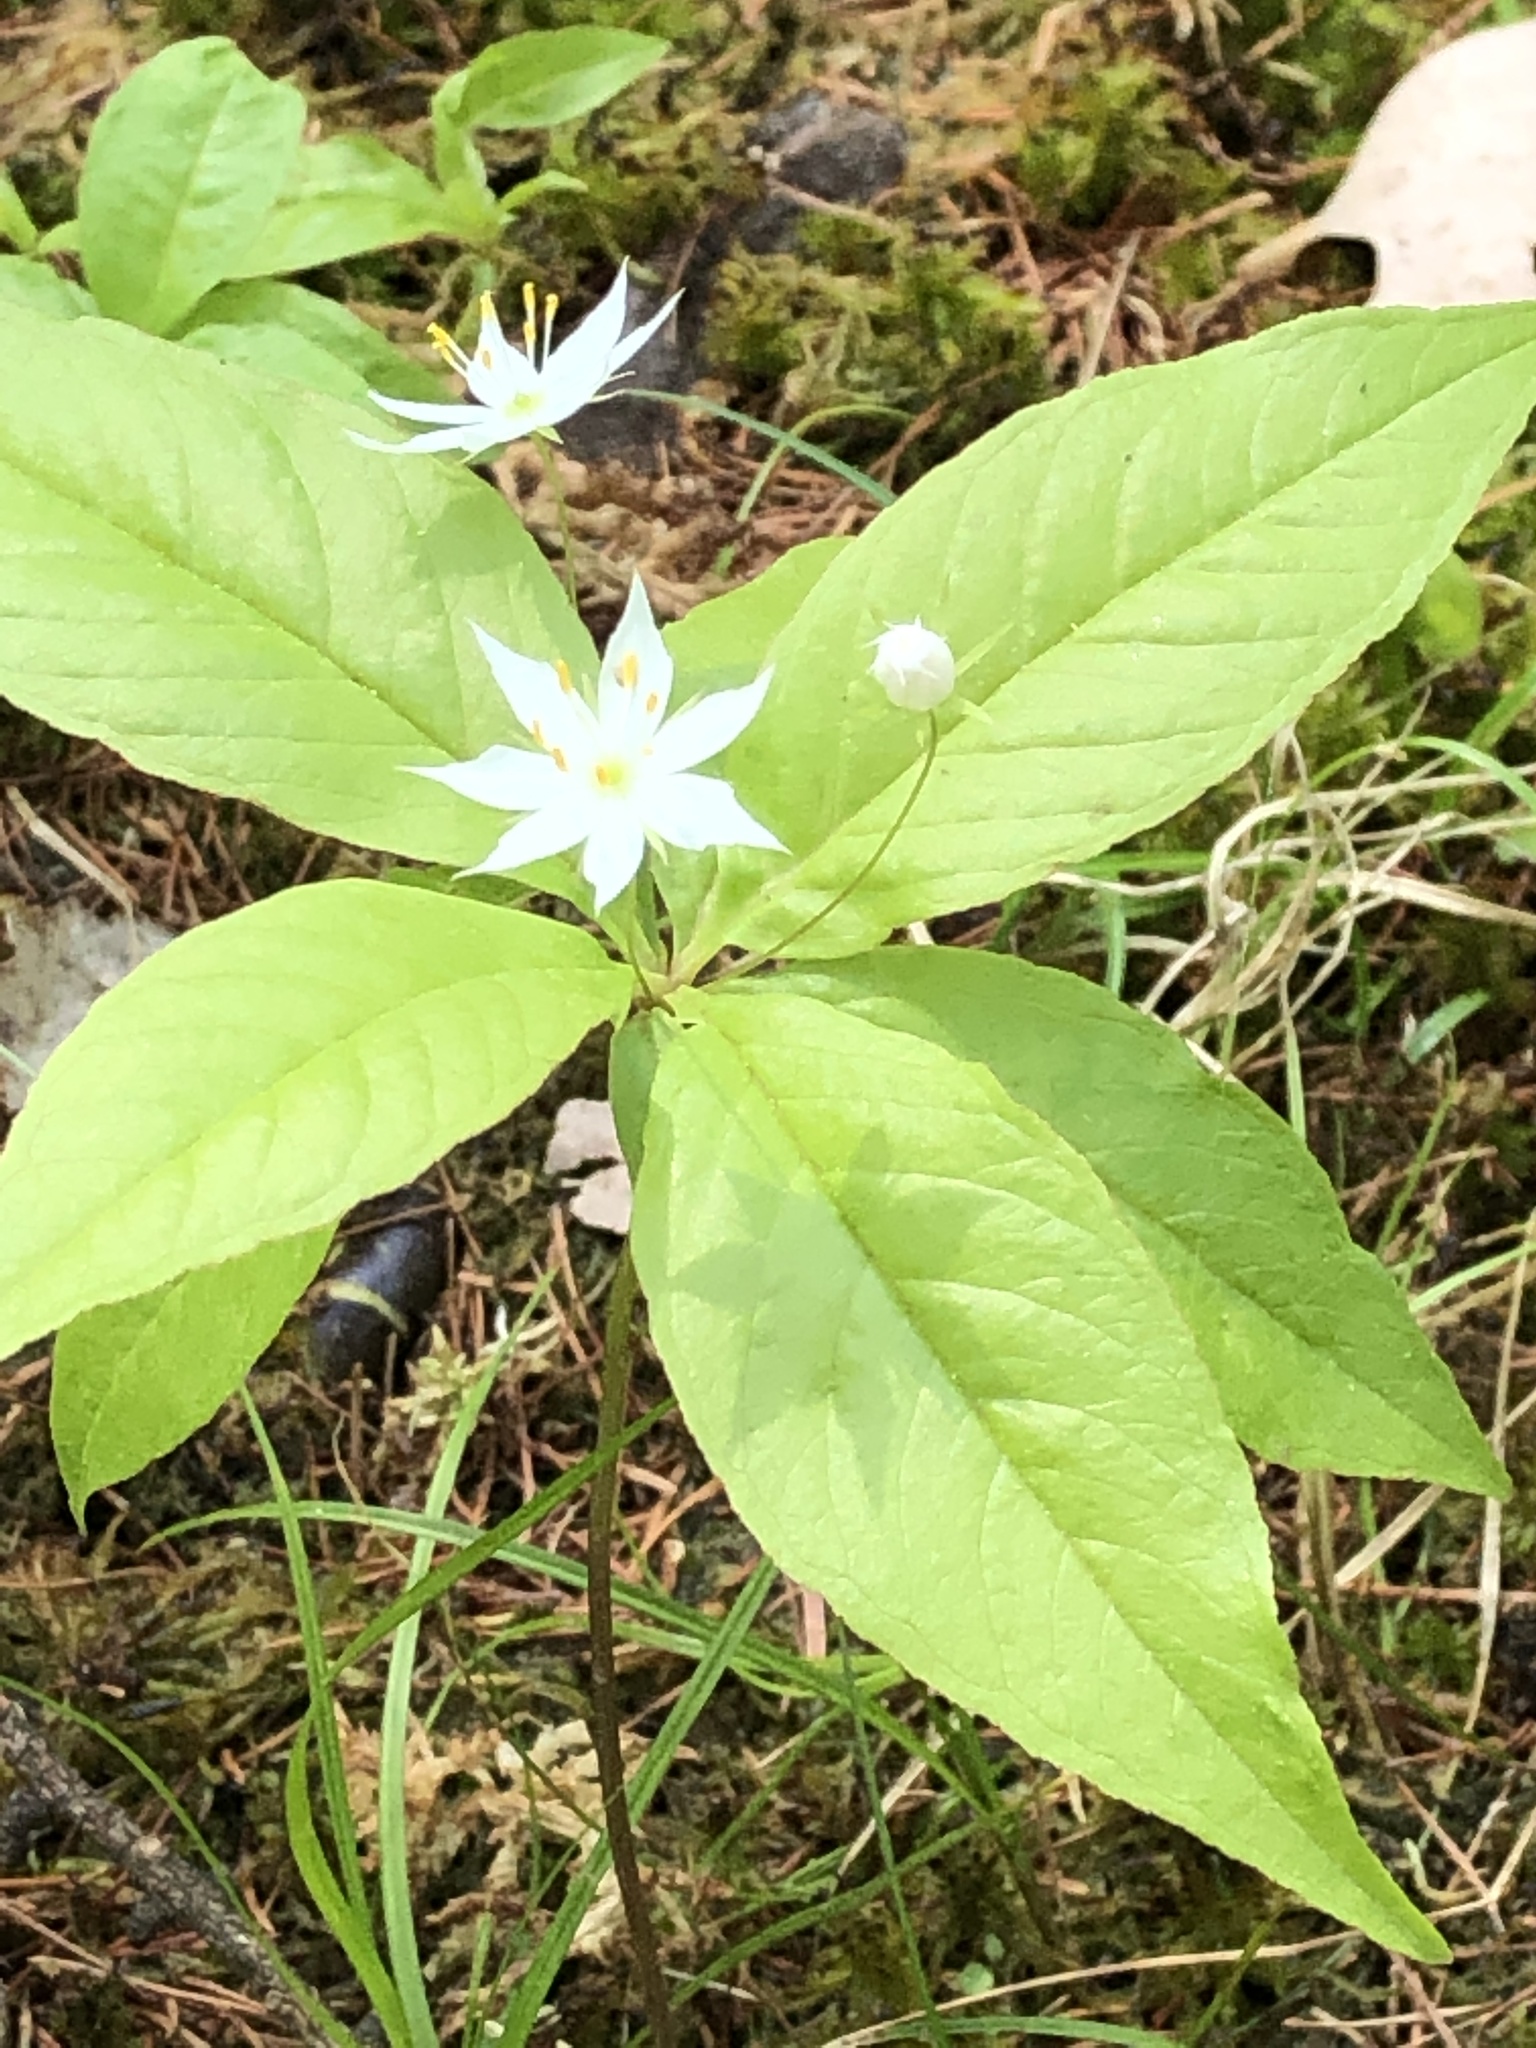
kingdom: Plantae
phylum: Tracheophyta
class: Magnoliopsida
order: Ericales
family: Primulaceae
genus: Lysimachia
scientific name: Lysimachia borealis
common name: American starflower
